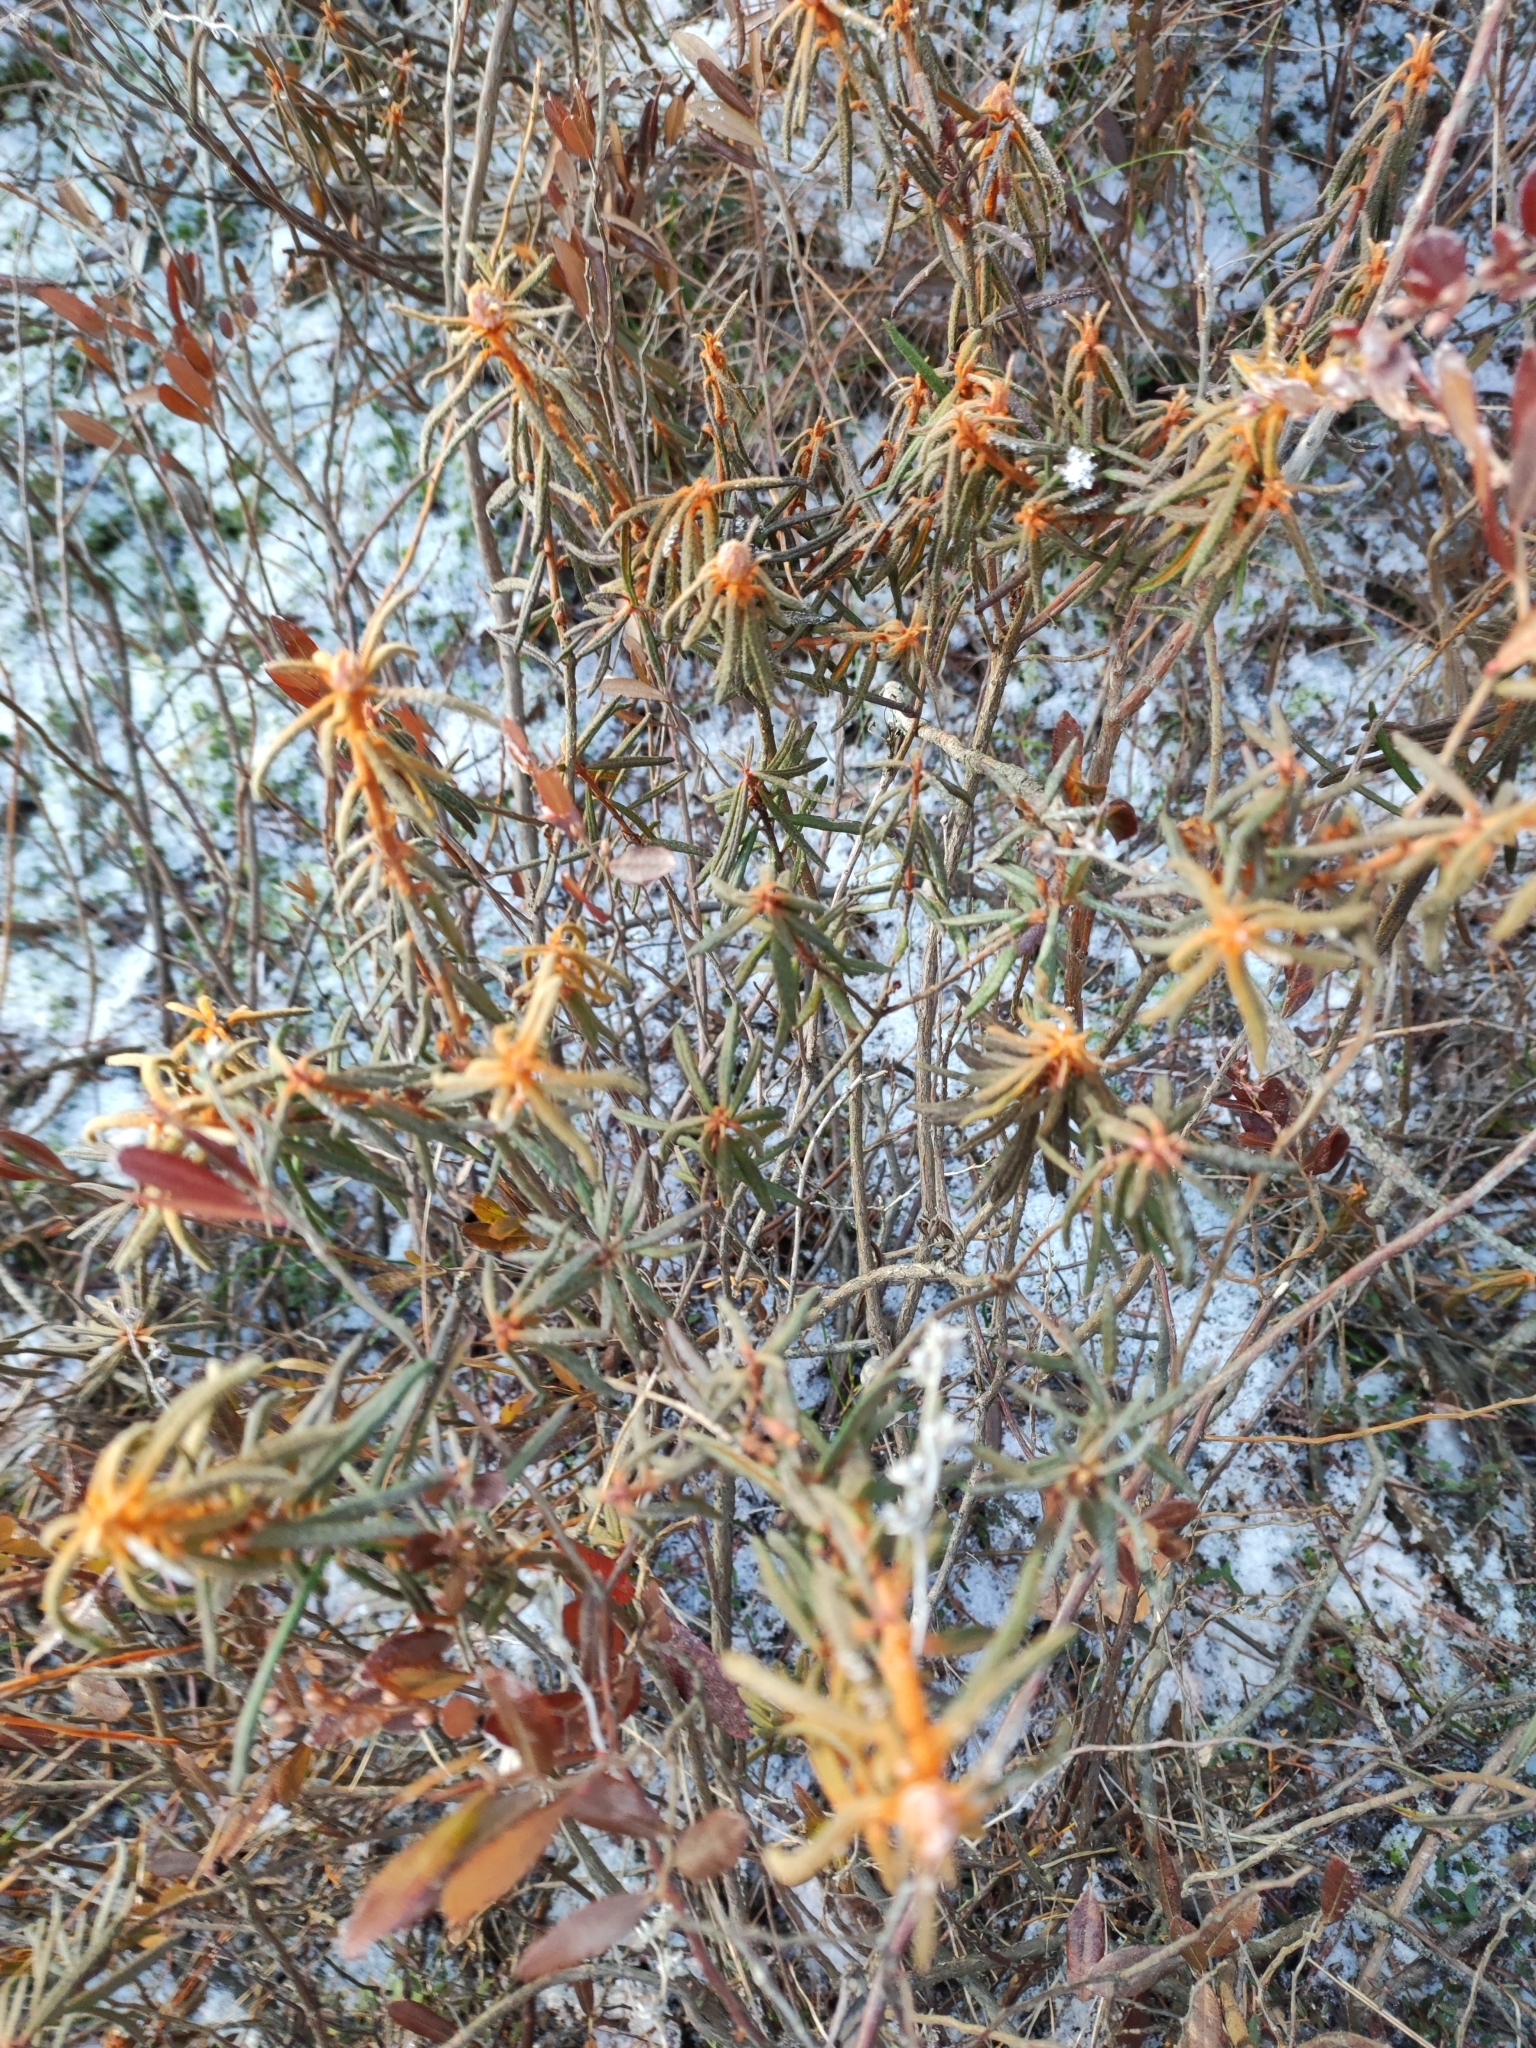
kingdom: Plantae
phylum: Tracheophyta
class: Magnoliopsida
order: Ericales
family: Ericaceae
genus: Rhododendron
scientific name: Rhododendron tomentosum
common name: Marsh labrador tea
